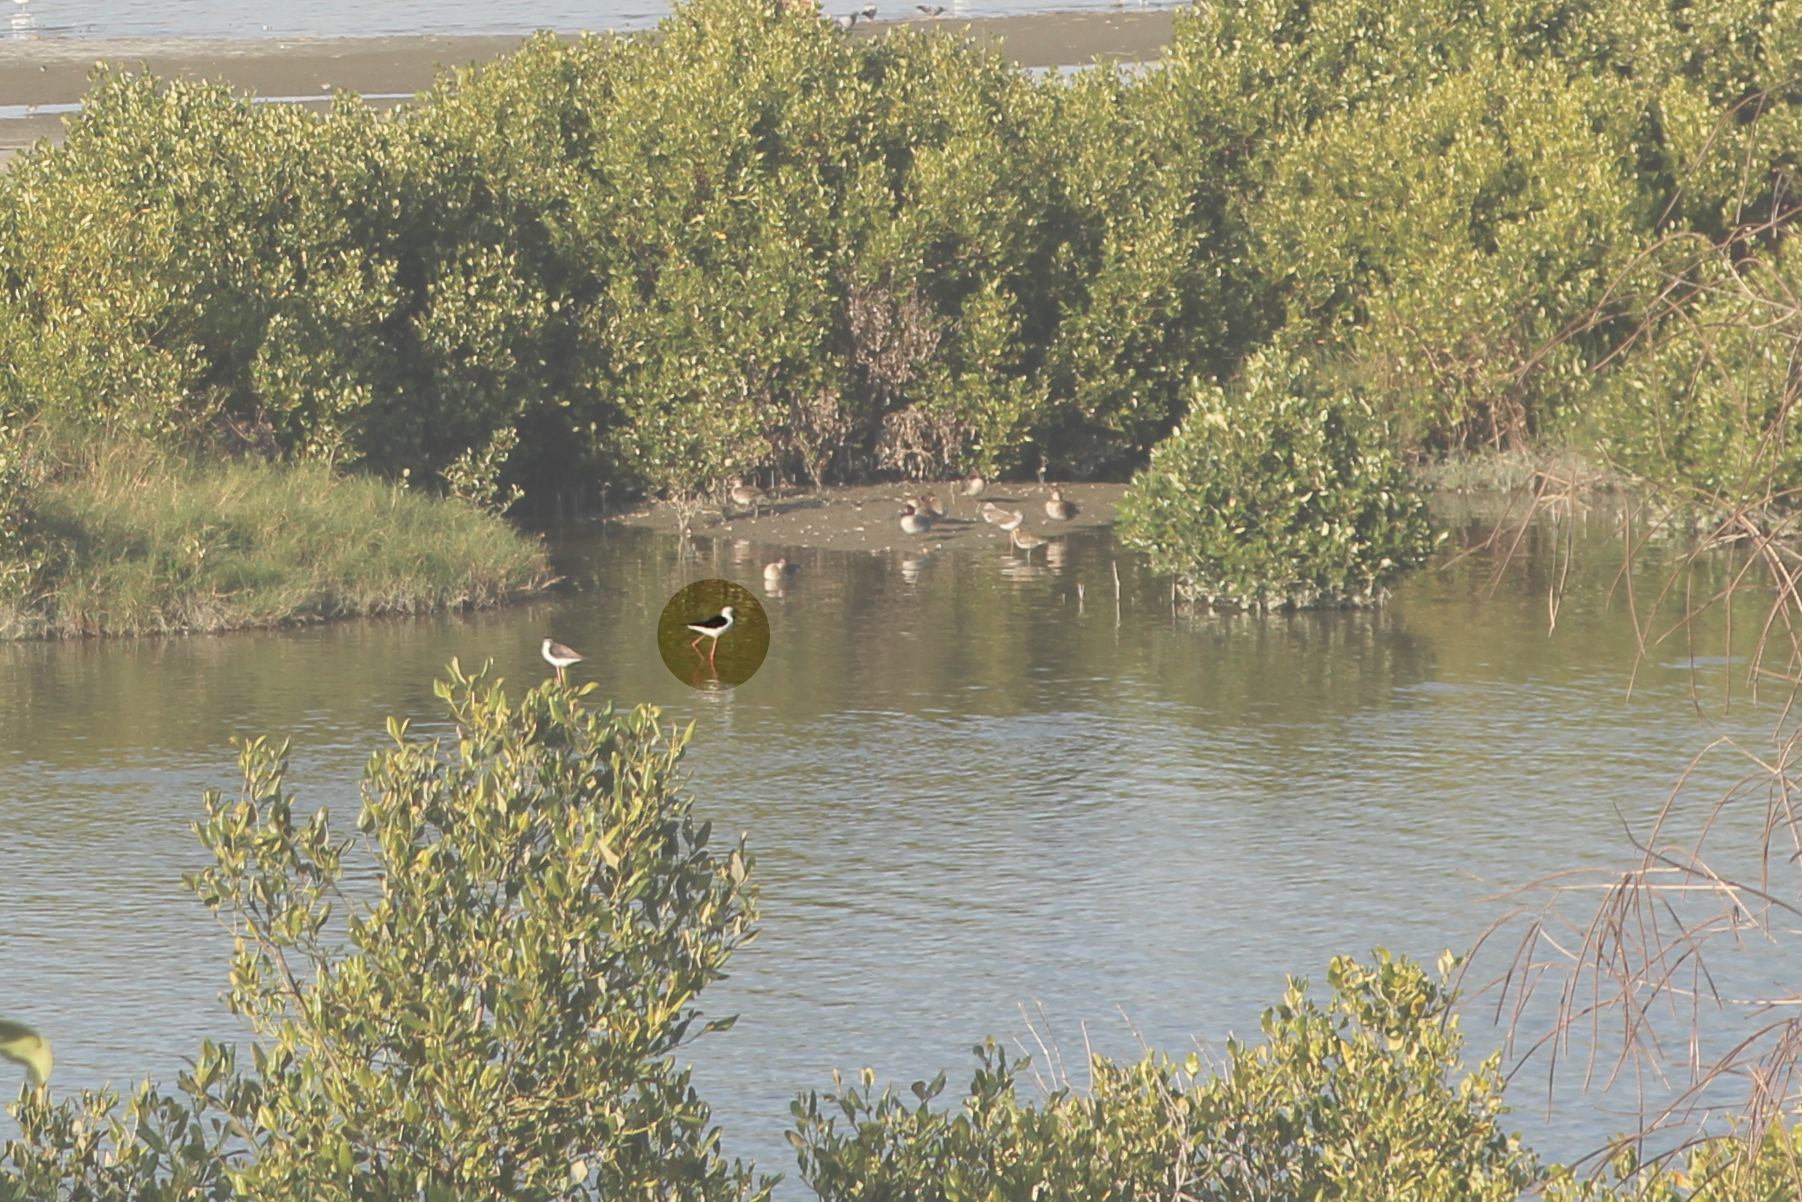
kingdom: Animalia
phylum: Chordata
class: Aves
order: Charadriiformes
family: Recurvirostridae
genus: Himantopus
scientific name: Himantopus himantopus
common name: Black-winged stilt
